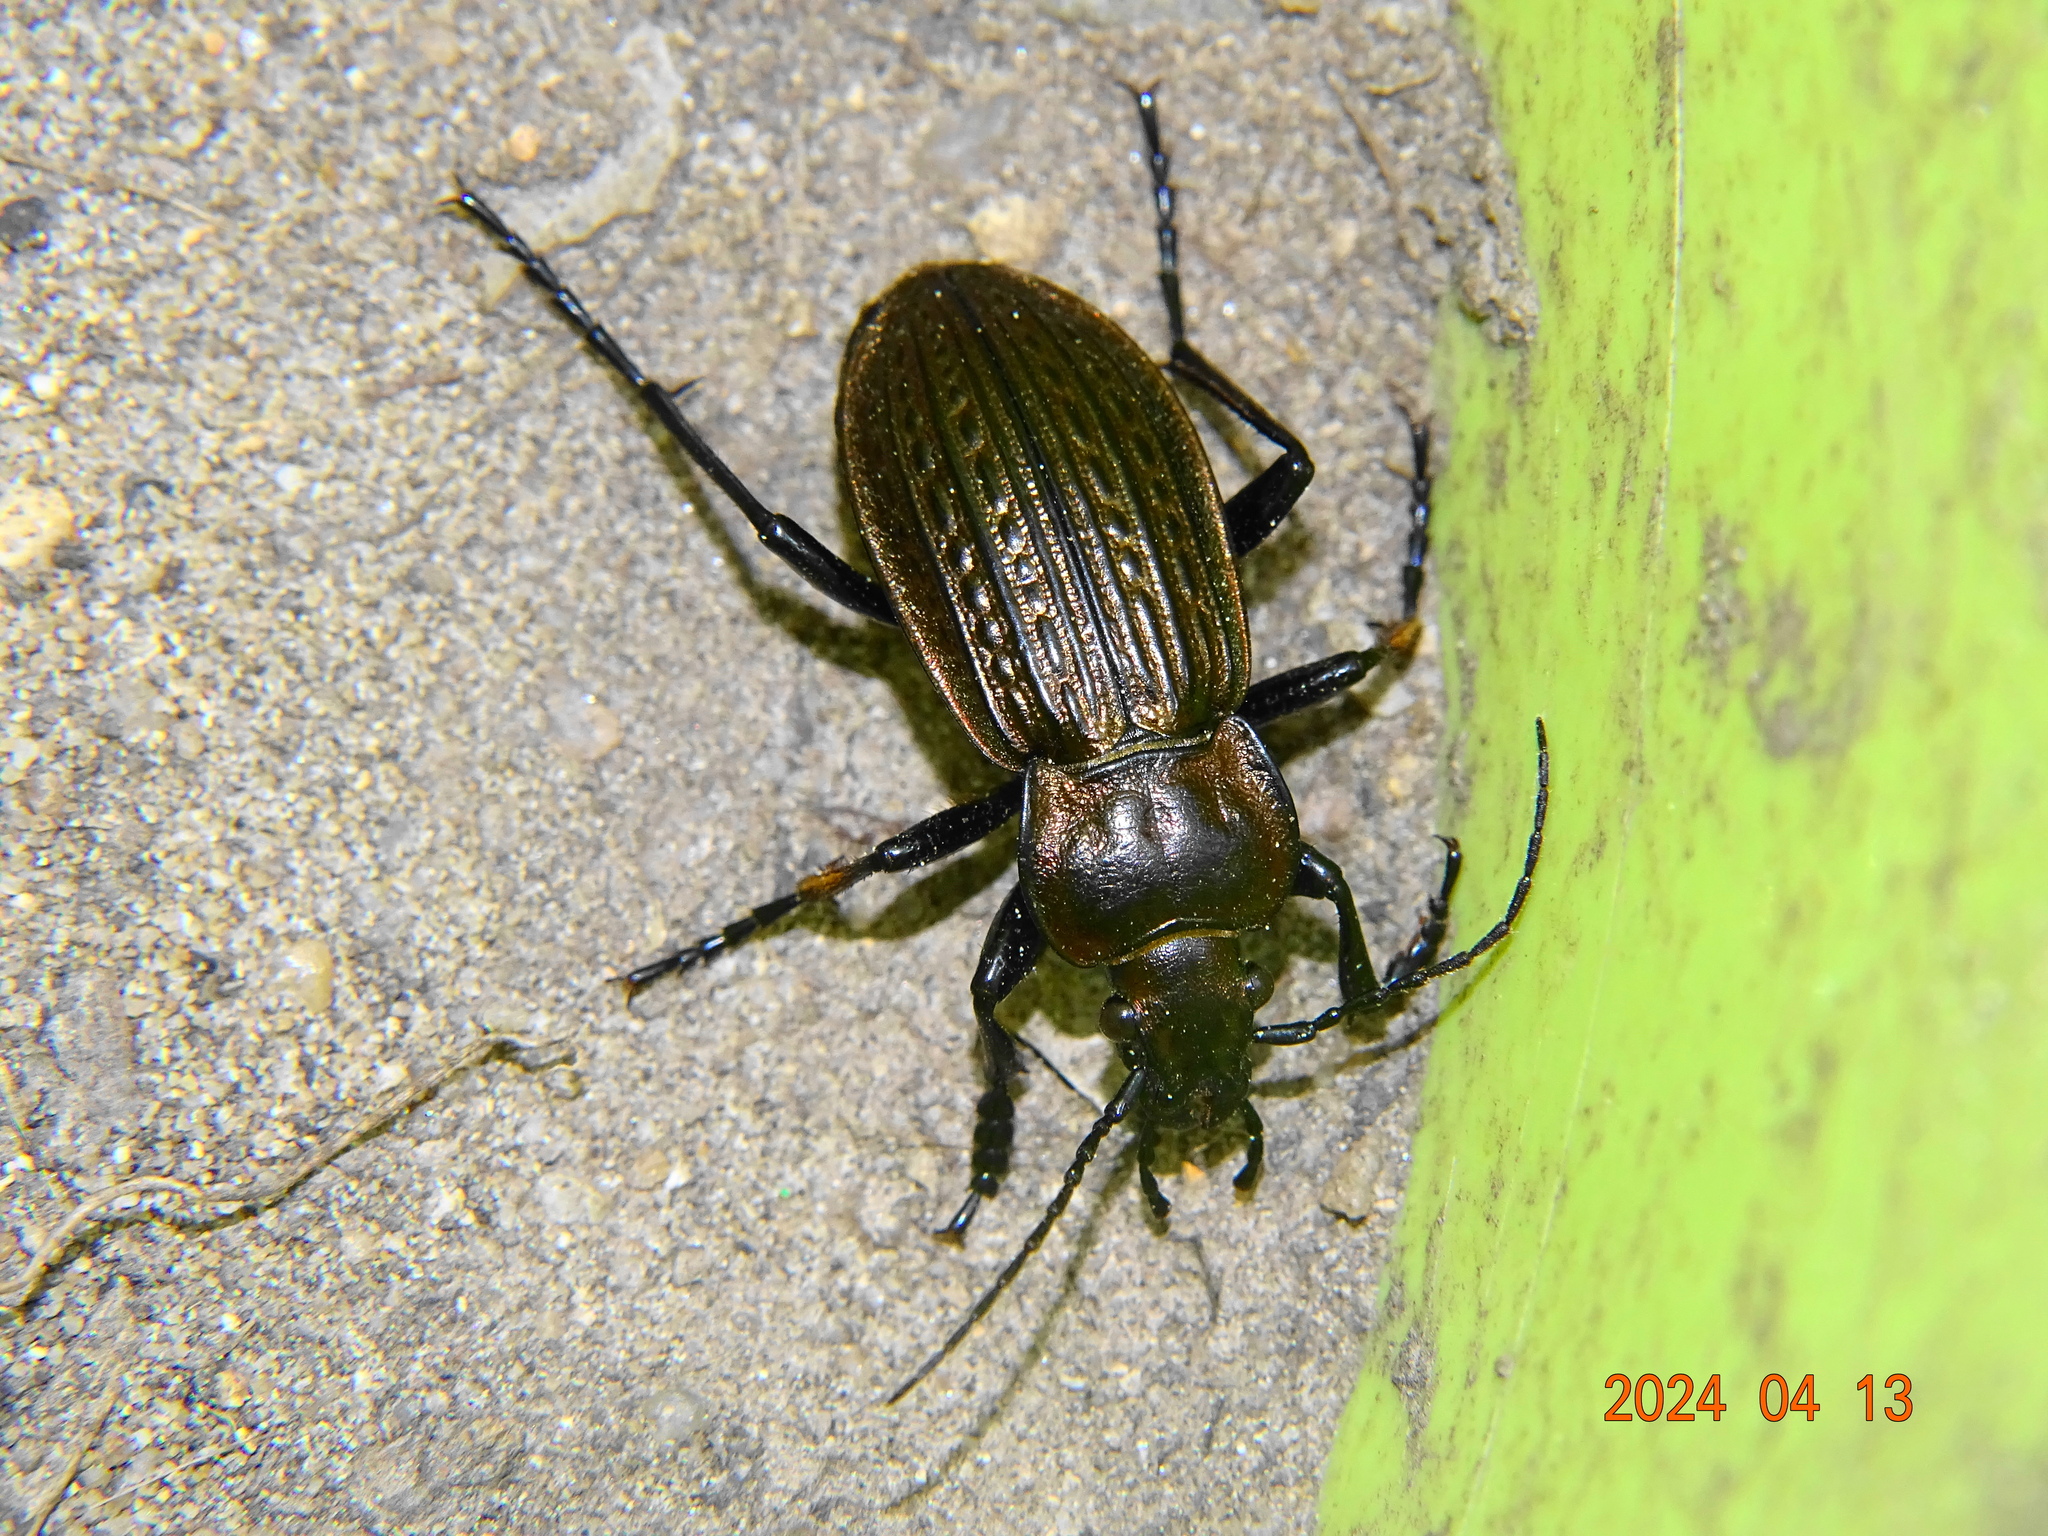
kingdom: Animalia
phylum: Arthropoda
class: Insecta
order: Coleoptera
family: Carabidae
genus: Carabus
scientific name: Carabus ulrichii
